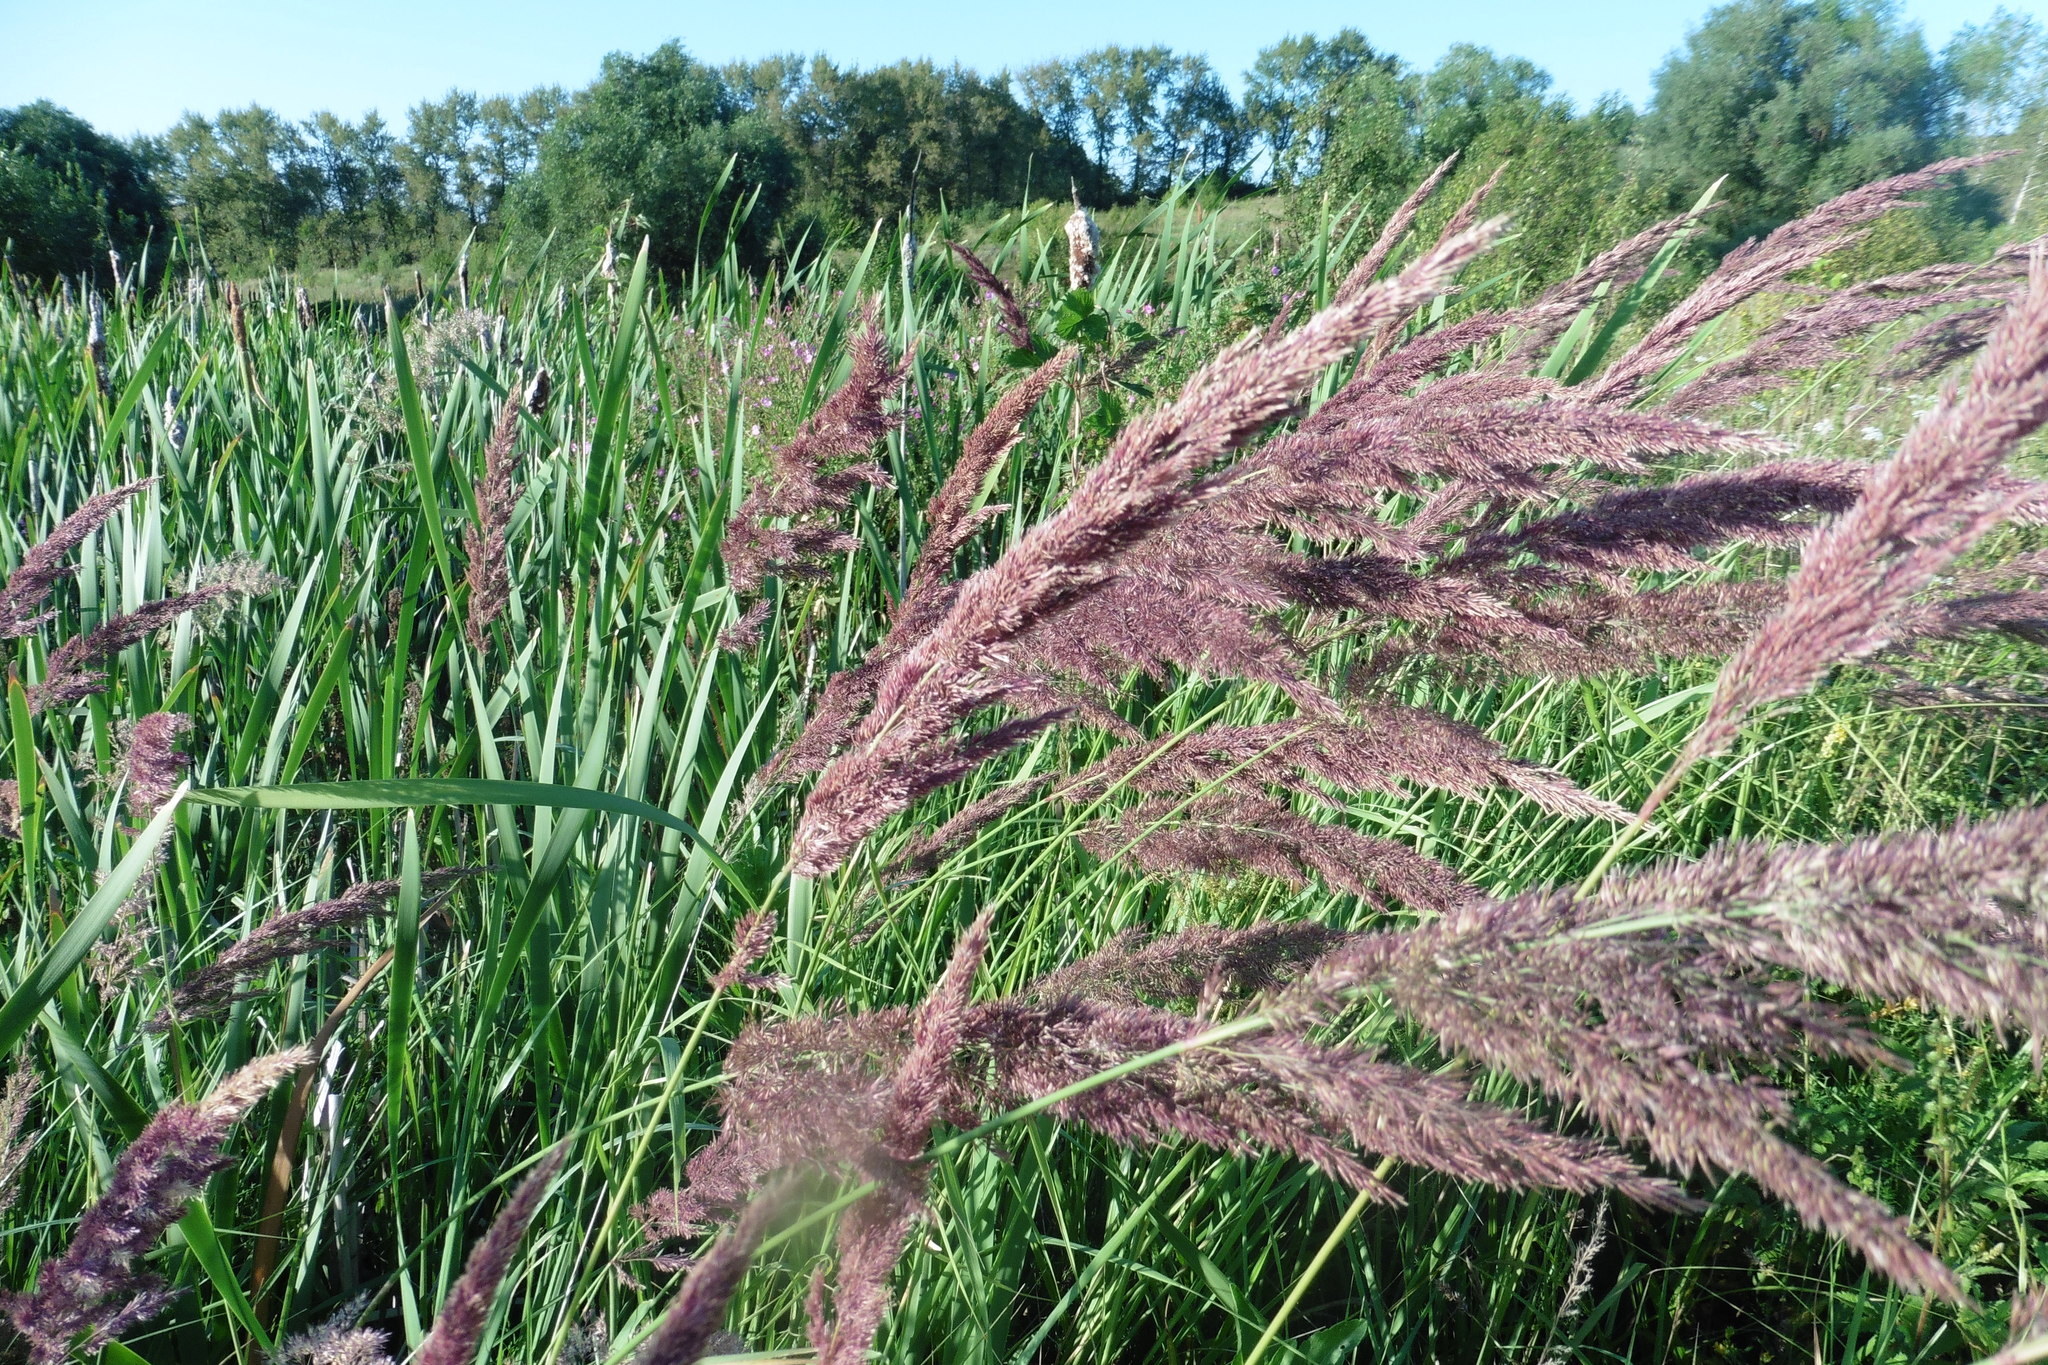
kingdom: Plantae
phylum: Tracheophyta
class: Liliopsida
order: Poales
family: Poaceae
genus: Calamagrostis
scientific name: Calamagrostis epigejos
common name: Wood small-reed
